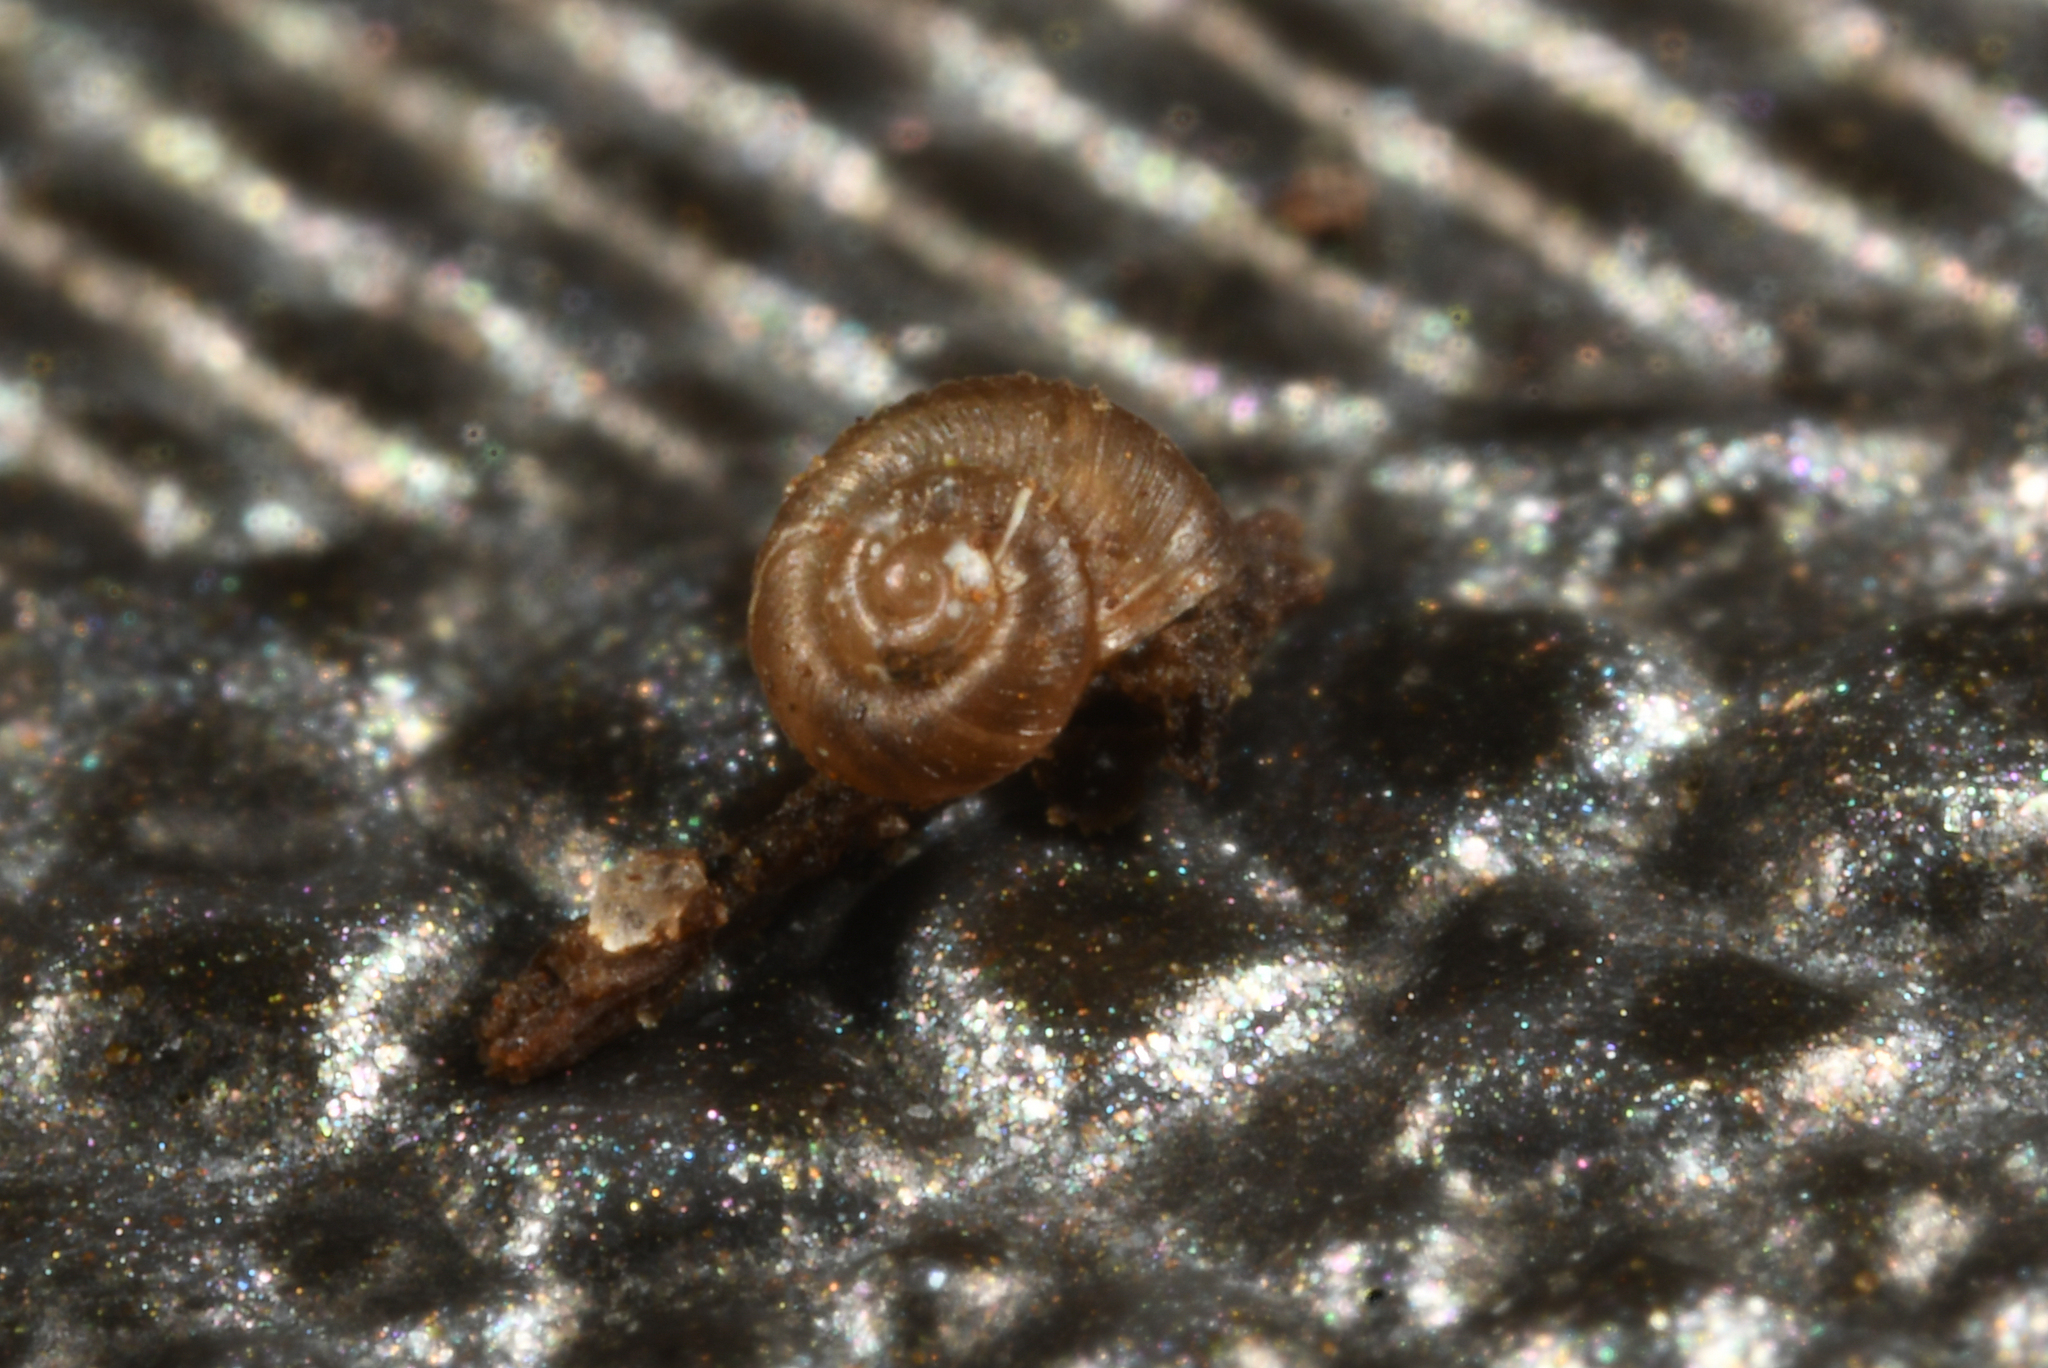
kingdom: Animalia
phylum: Mollusca
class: Gastropoda
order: Stylommatophora
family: Punctidae
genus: Paralaoma
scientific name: Paralaoma servilis
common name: Pinhead spot
